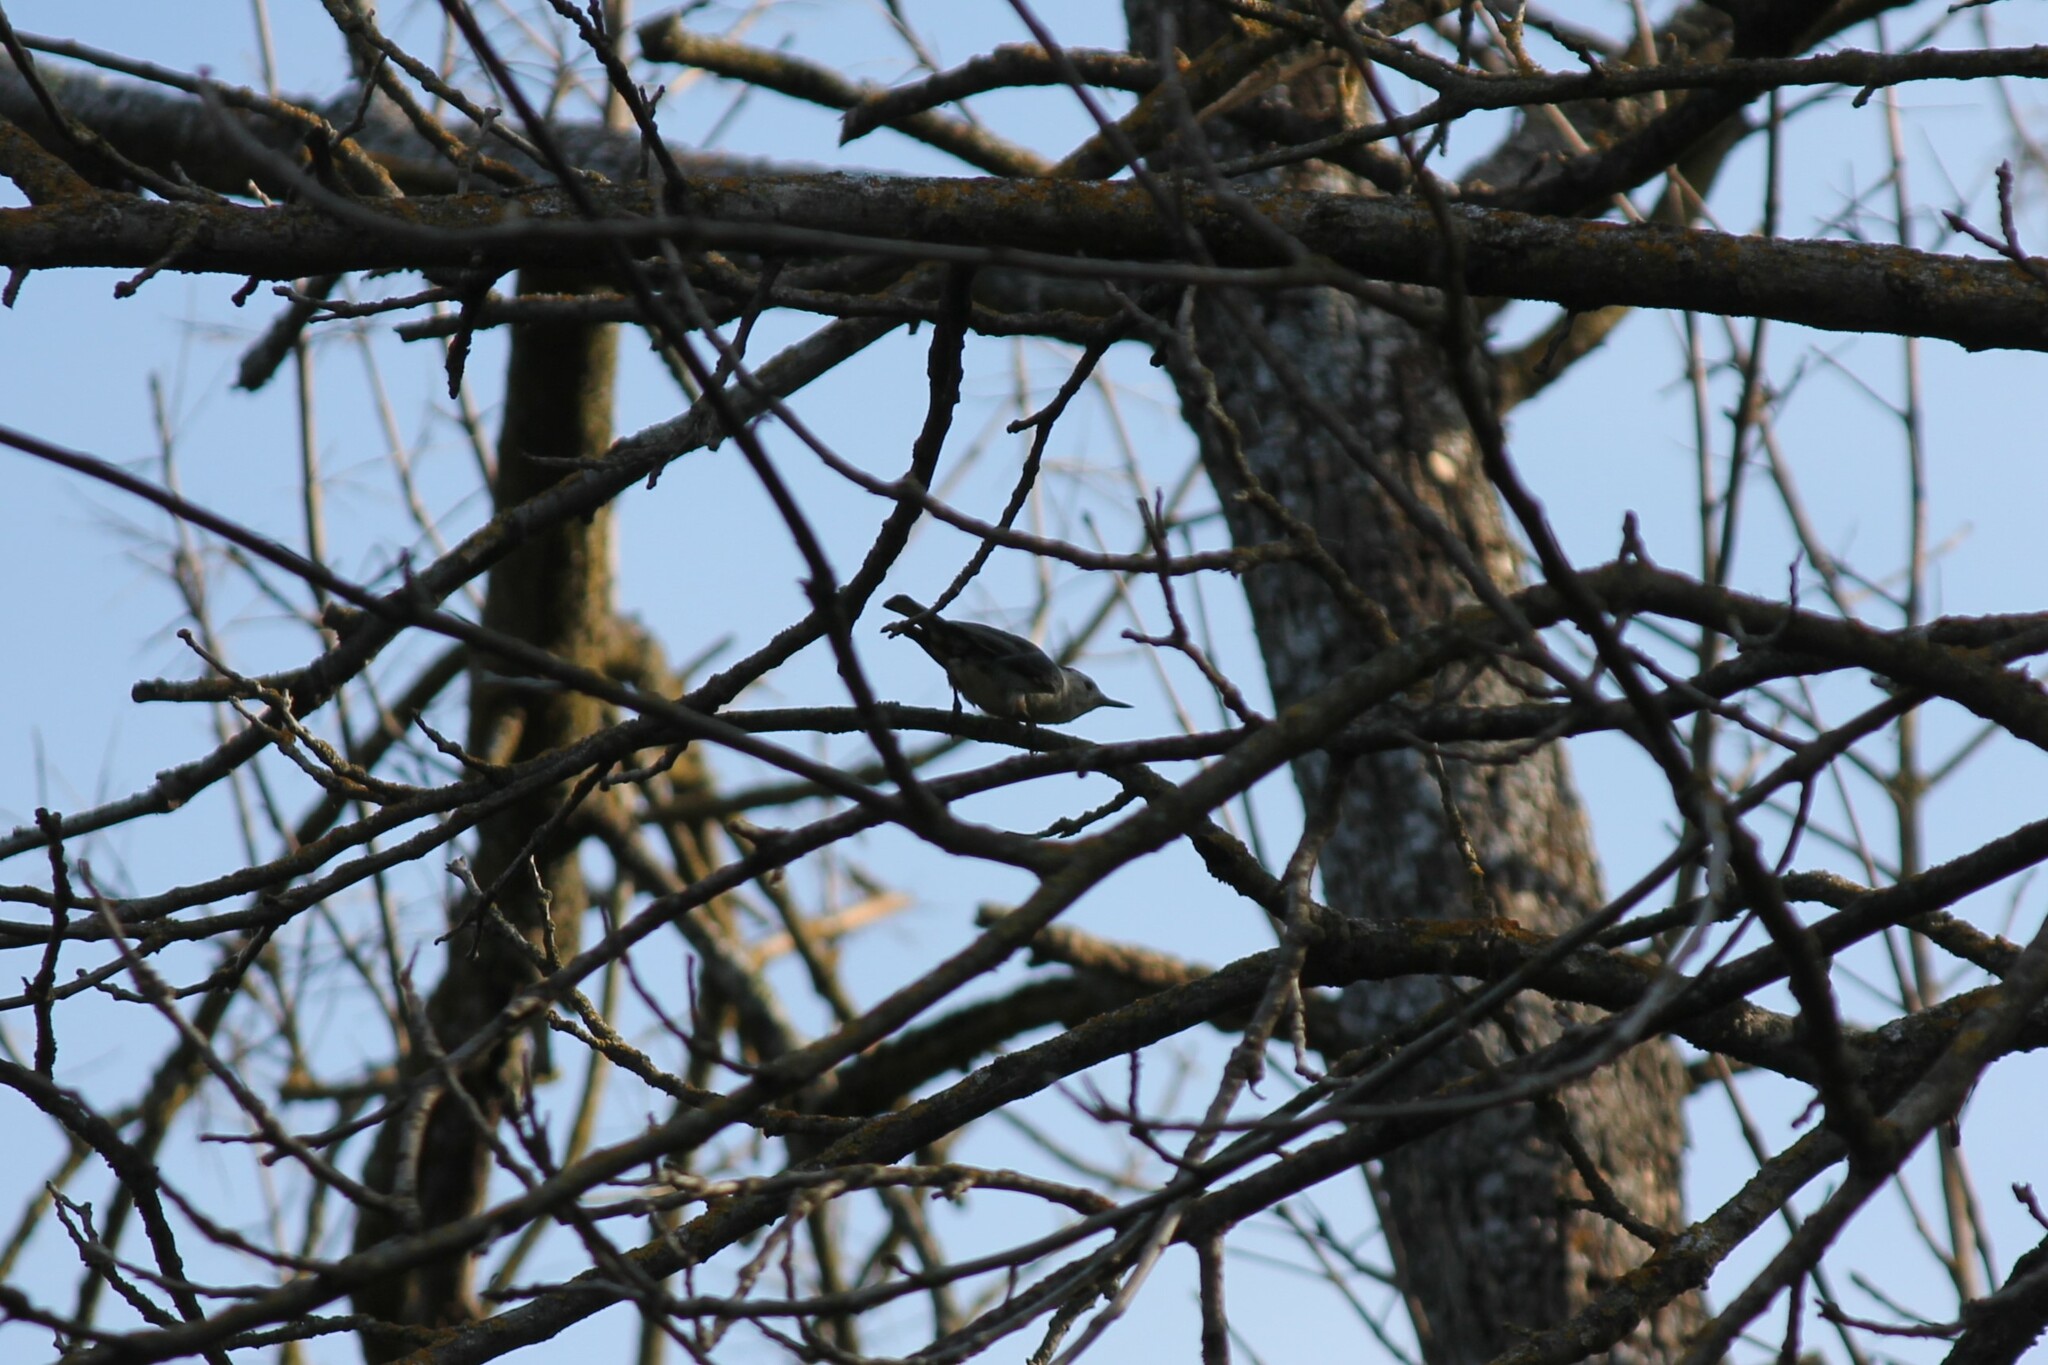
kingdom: Animalia
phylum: Chordata
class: Aves
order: Passeriformes
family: Sittidae
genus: Sitta
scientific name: Sitta carolinensis
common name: White-breasted nuthatch
